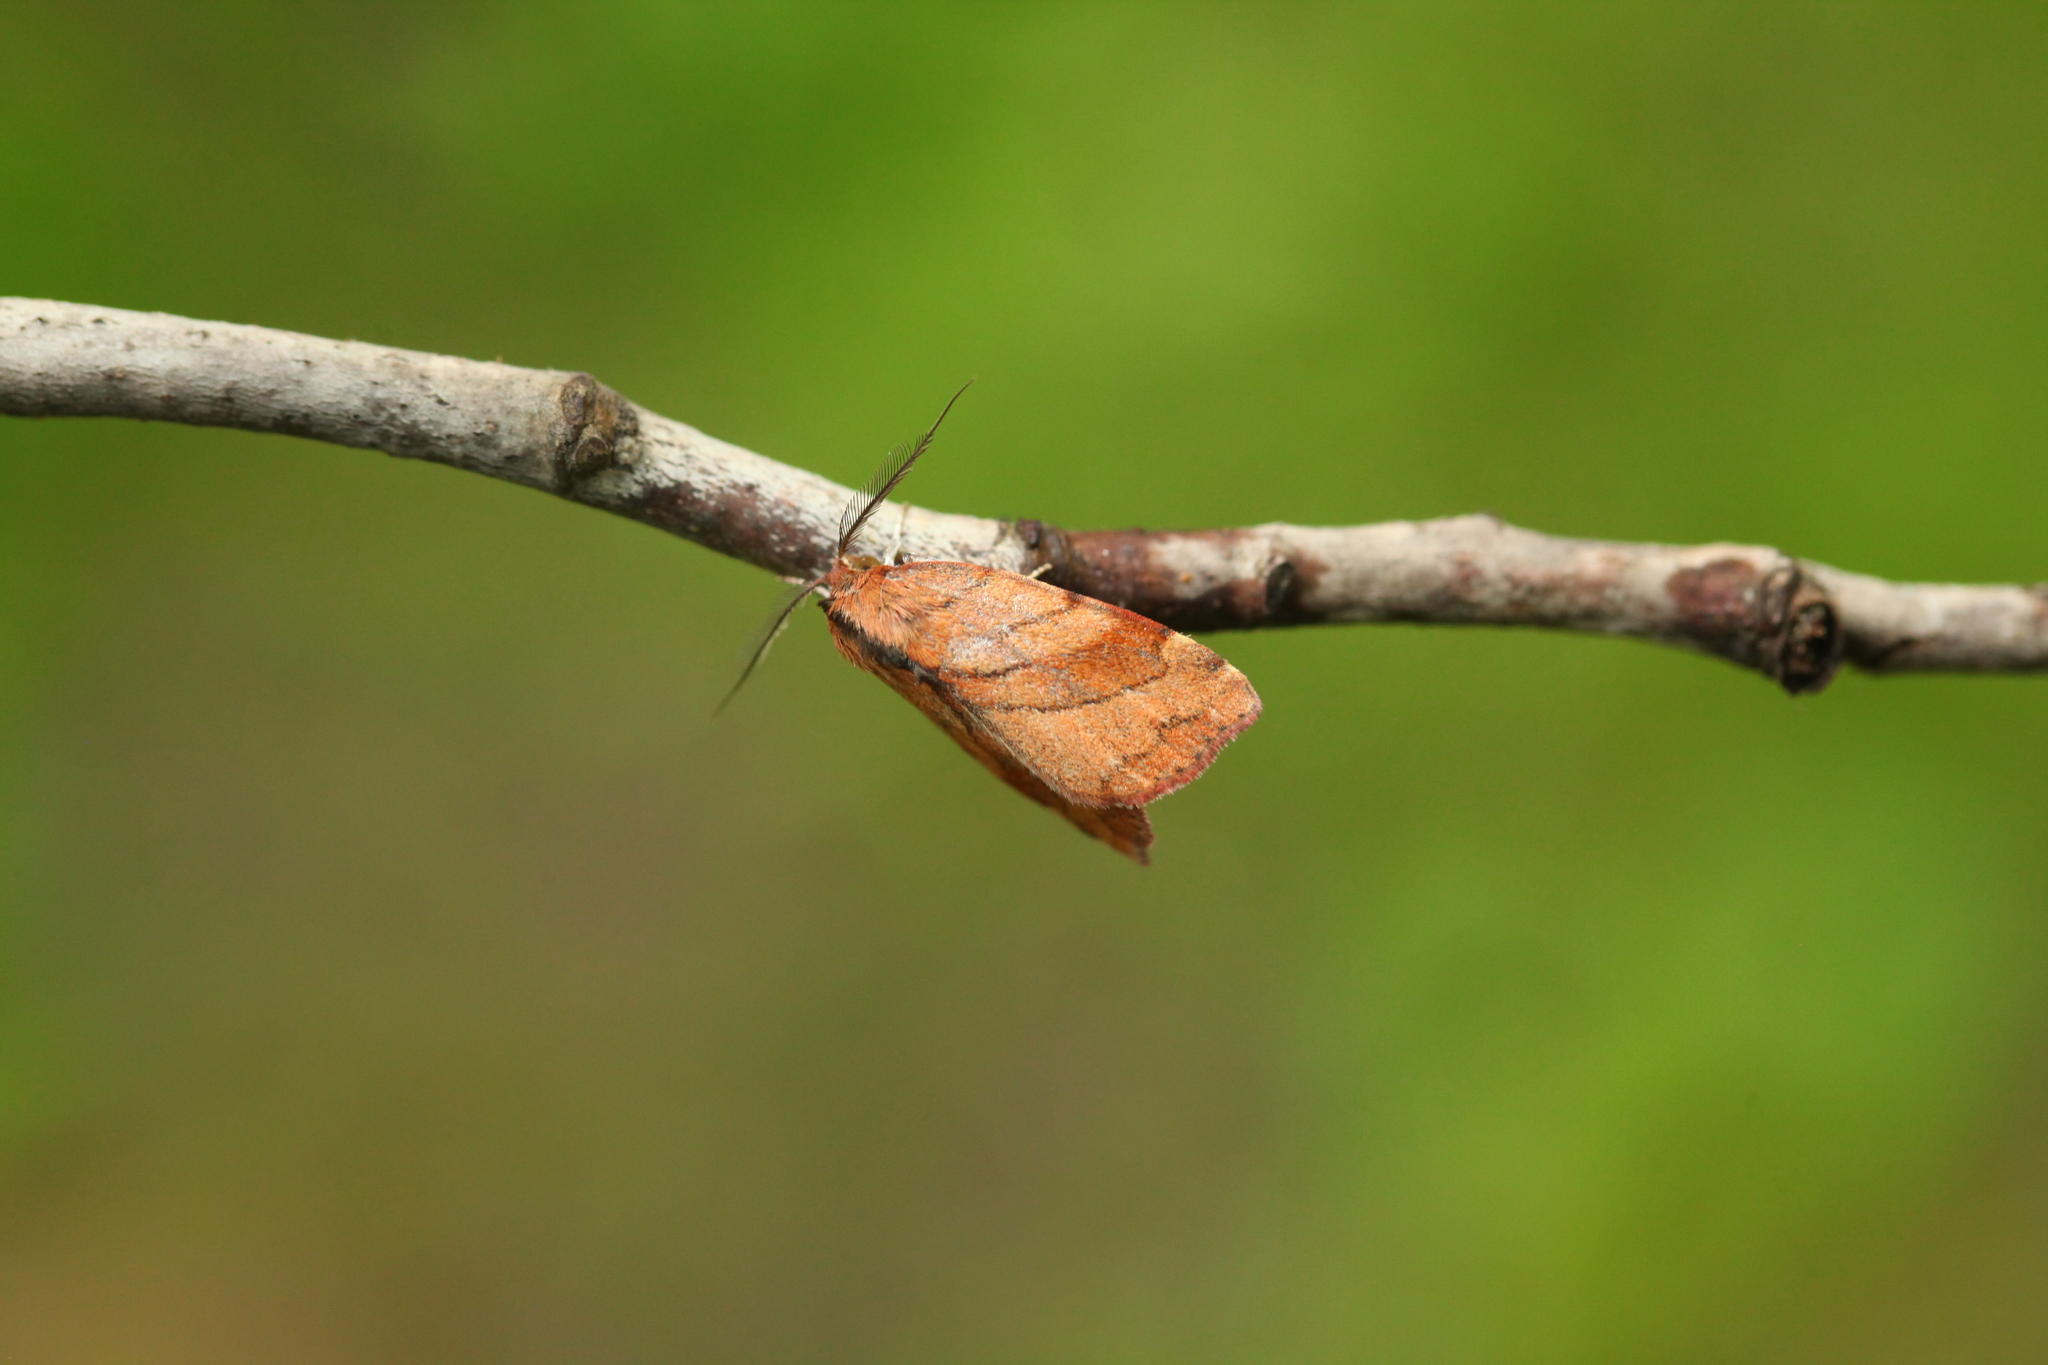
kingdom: Animalia
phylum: Arthropoda
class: Insecta
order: Lepidoptera
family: Nolidae
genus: Macrochthonia
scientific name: Macrochthonia fervens
